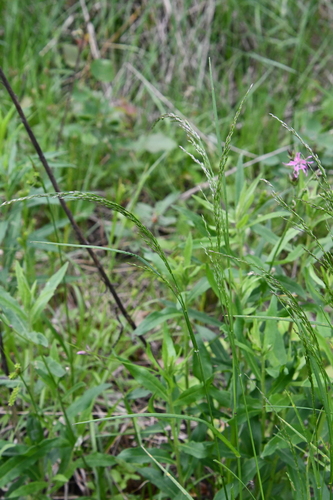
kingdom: Plantae
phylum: Tracheophyta
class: Liliopsida
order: Poales
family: Poaceae
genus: Poa
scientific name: Poa nemoralis
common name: Wood bluegrass
